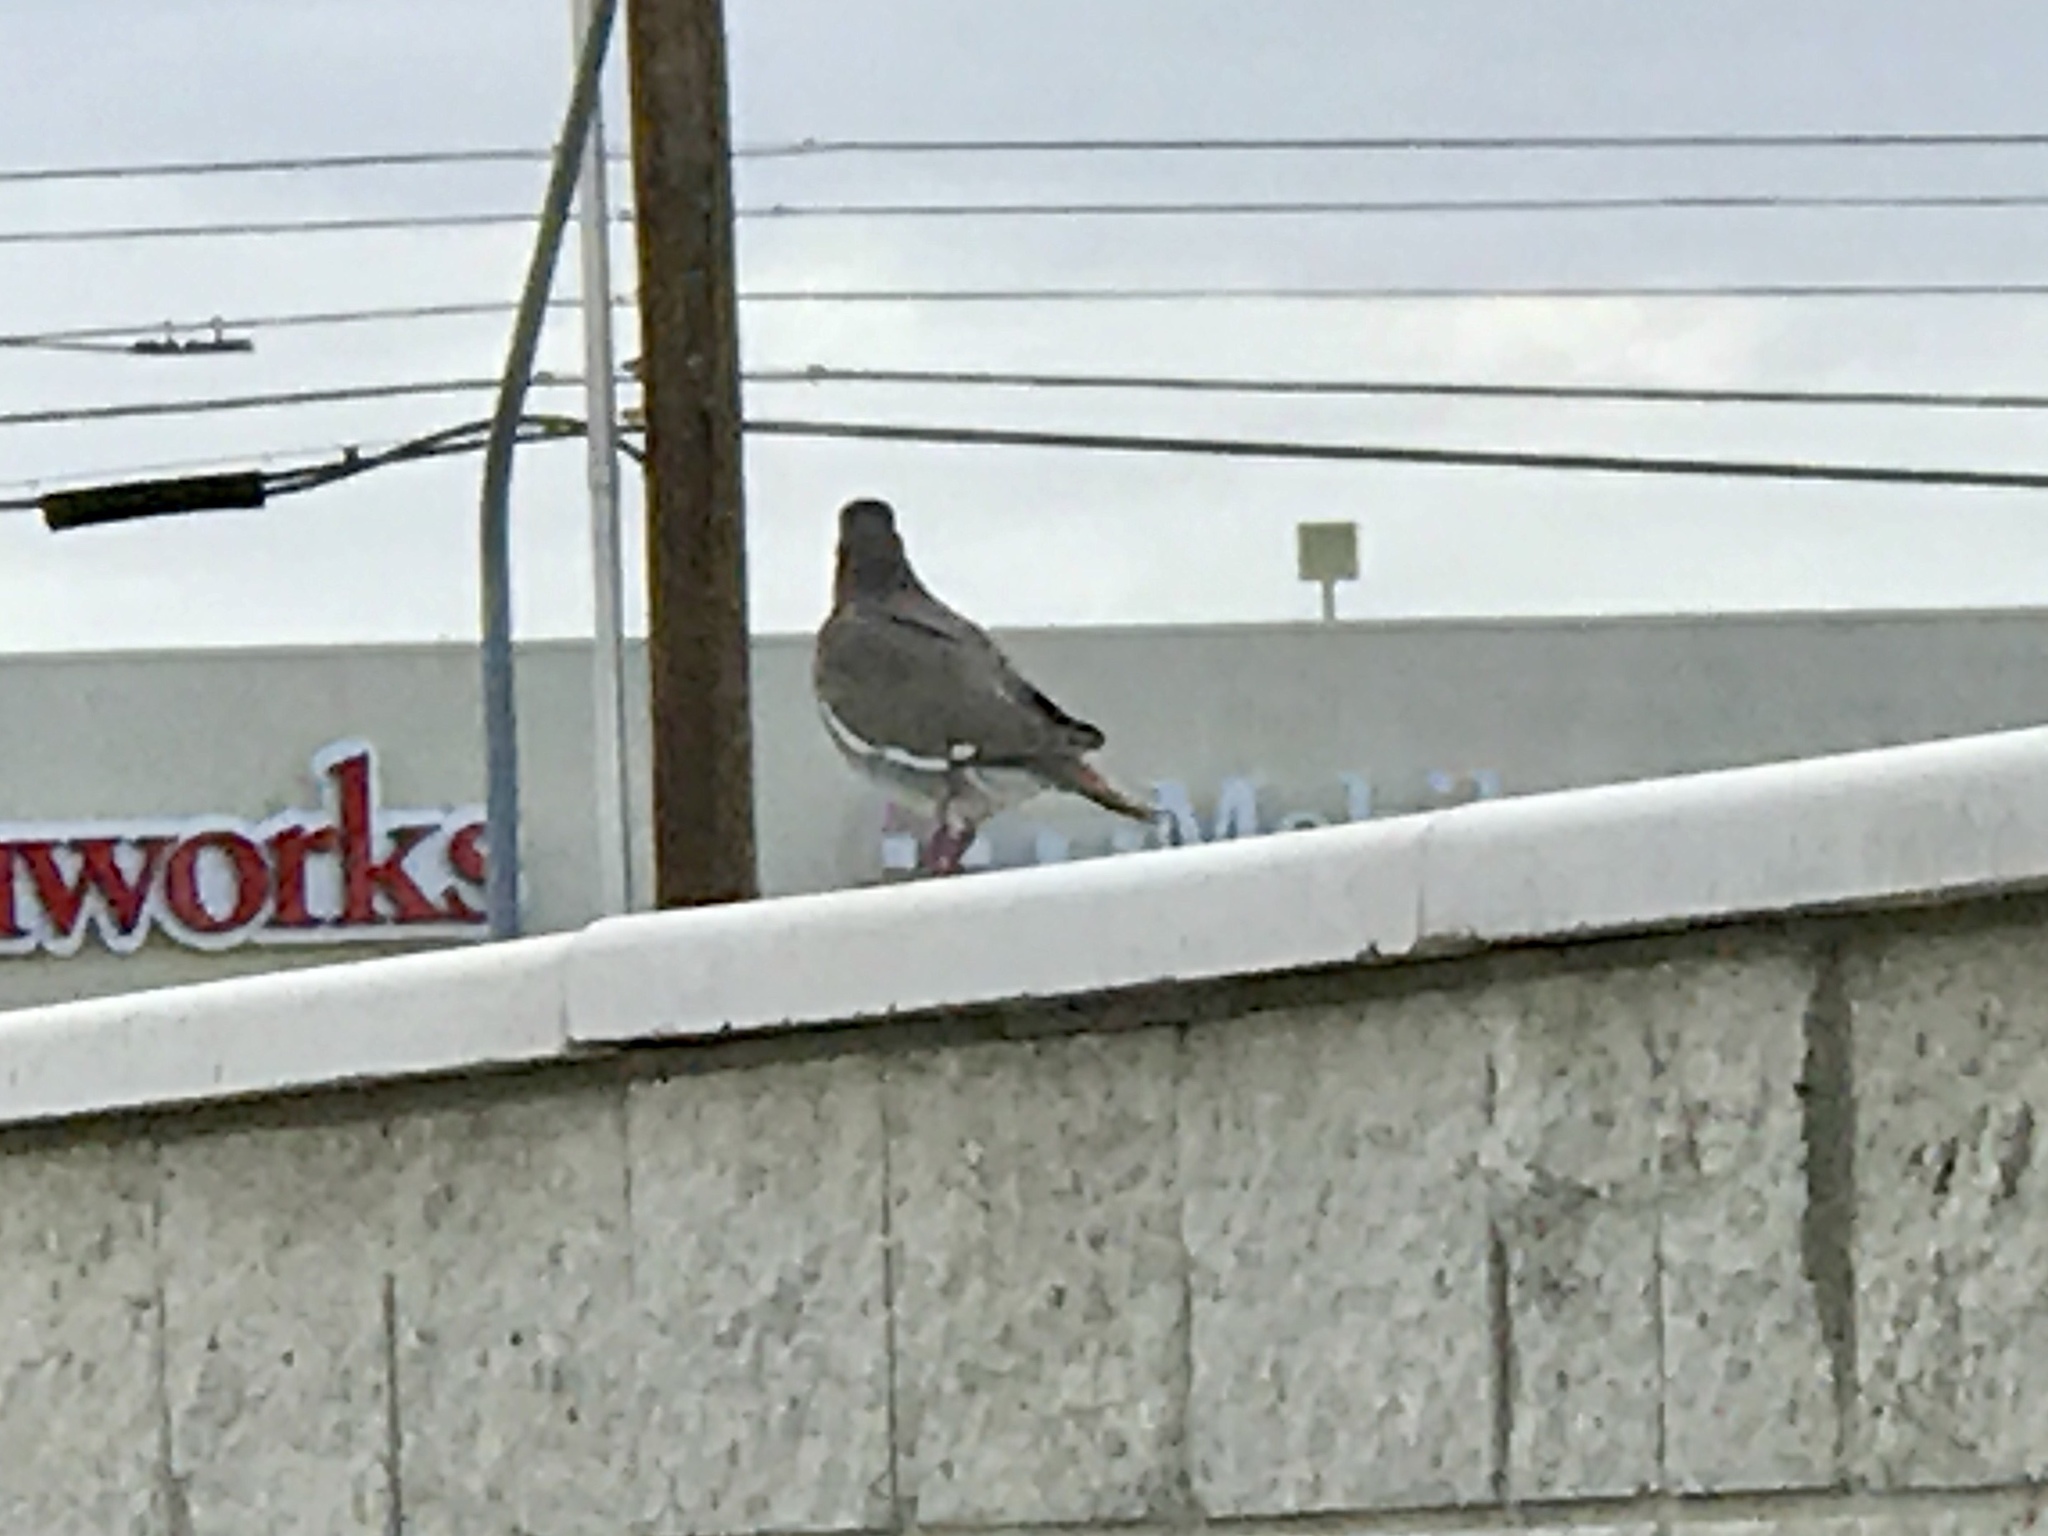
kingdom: Animalia
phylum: Chordata
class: Aves
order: Columbiformes
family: Columbidae
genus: Zenaida
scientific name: Zenaida asiatica
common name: White-winged dove
